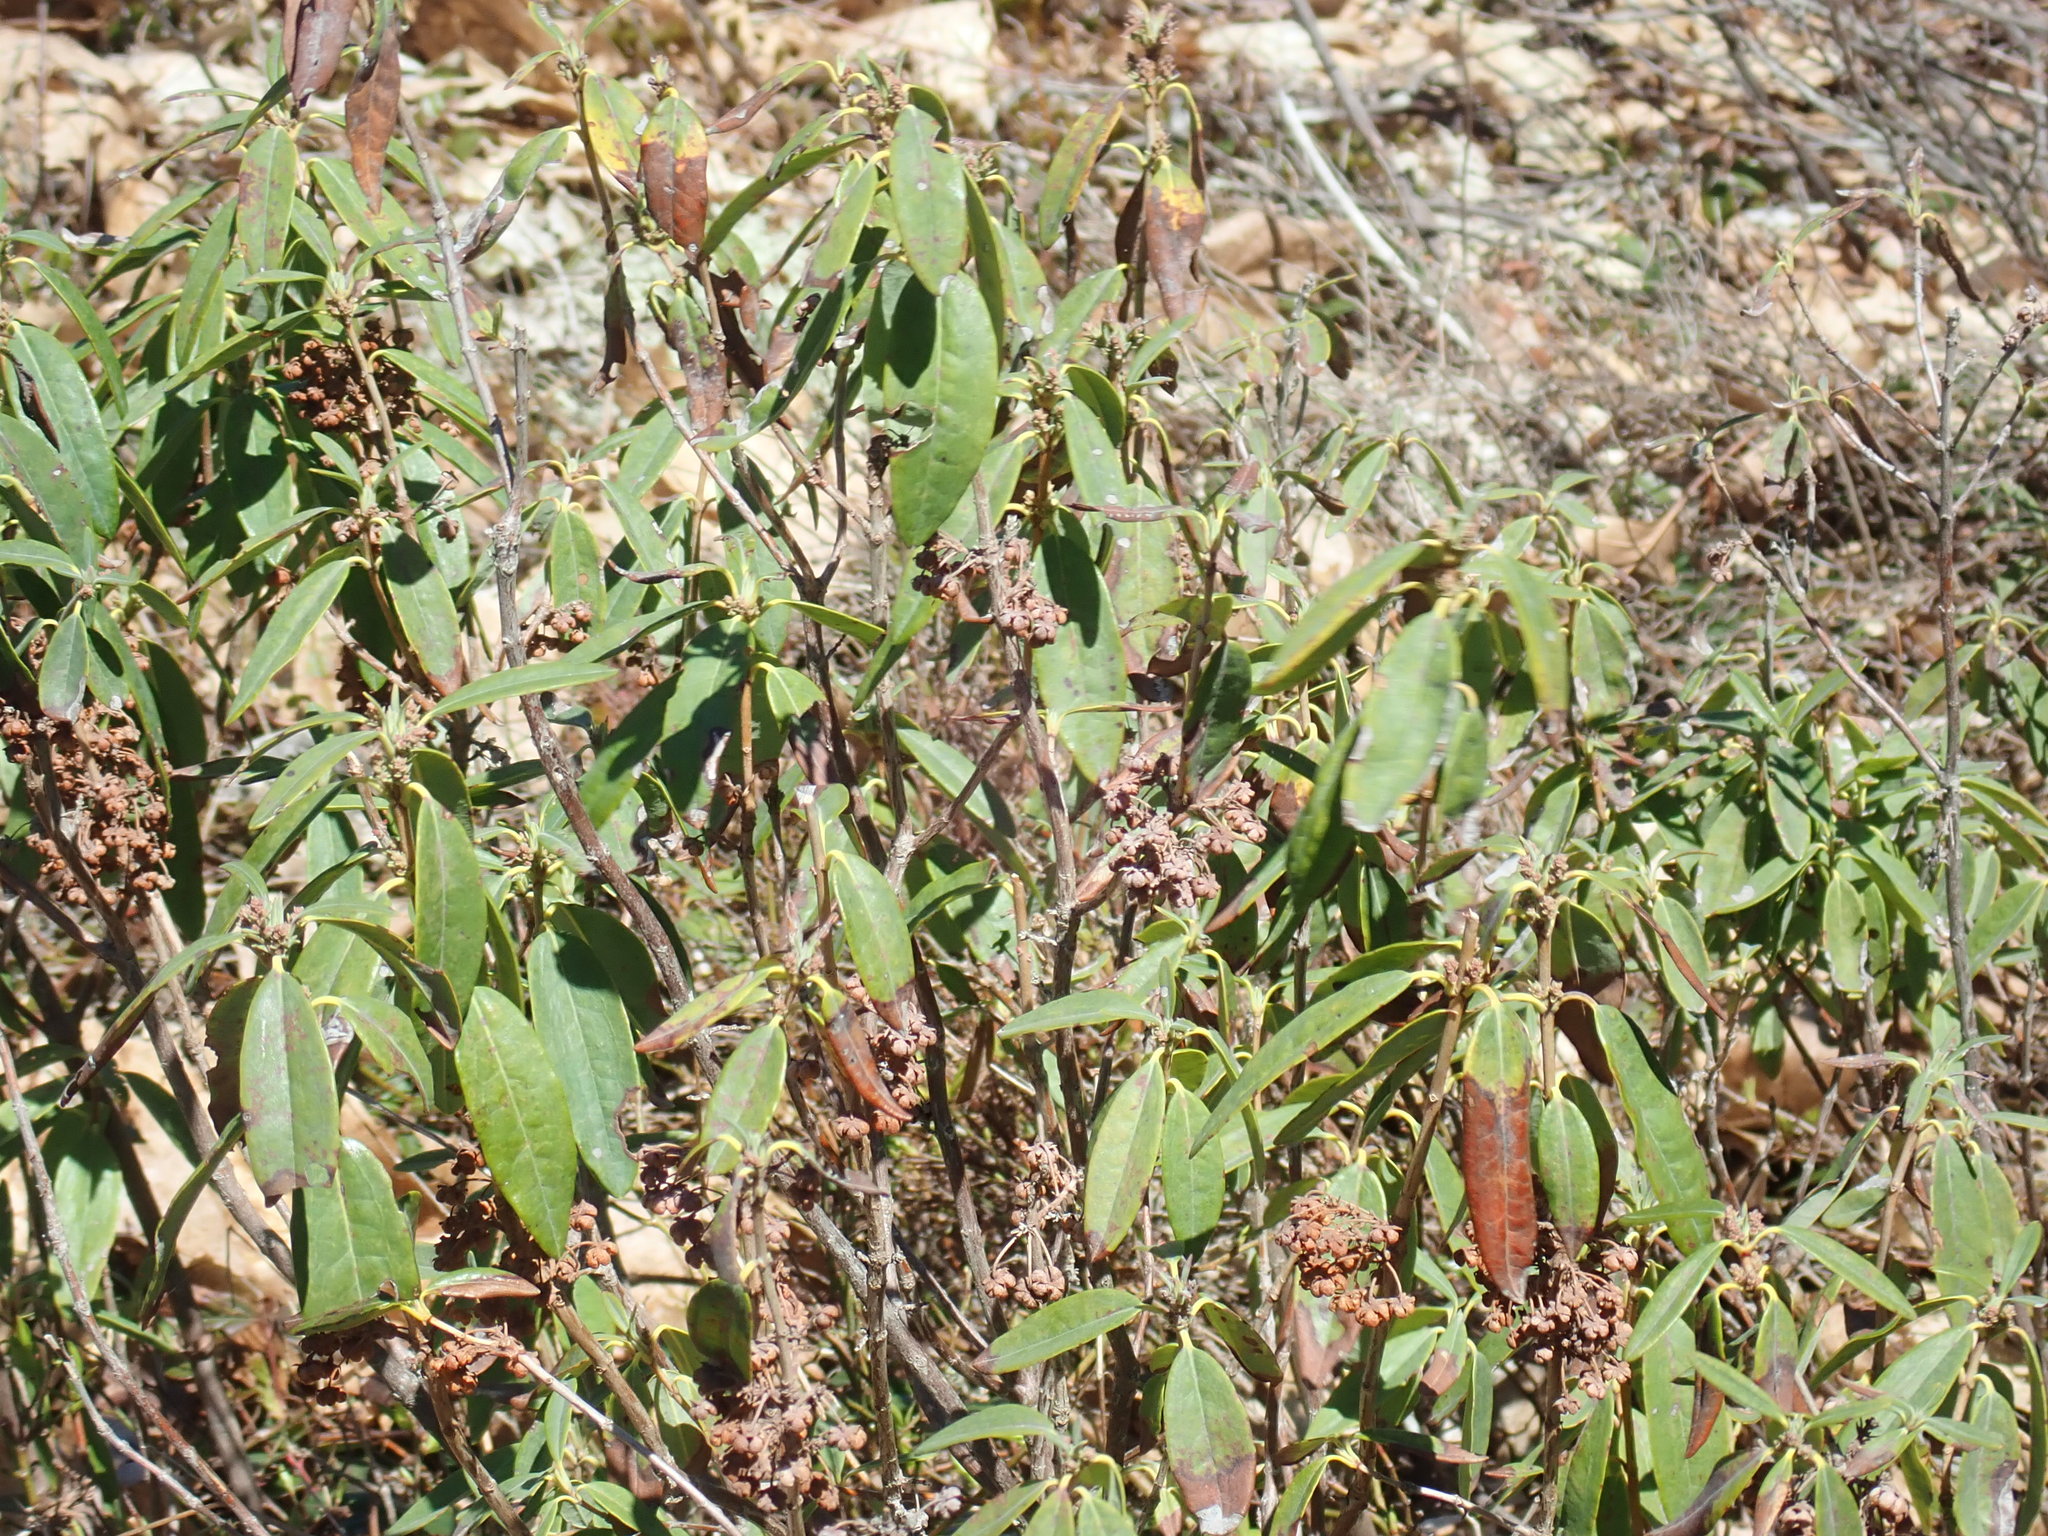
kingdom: Plantae
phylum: Tracheophyta
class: Magnoliopsida
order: Ericales
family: Ericaceae
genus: Kalmia
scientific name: Kalmia angustifolia
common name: Sheep-laurel
